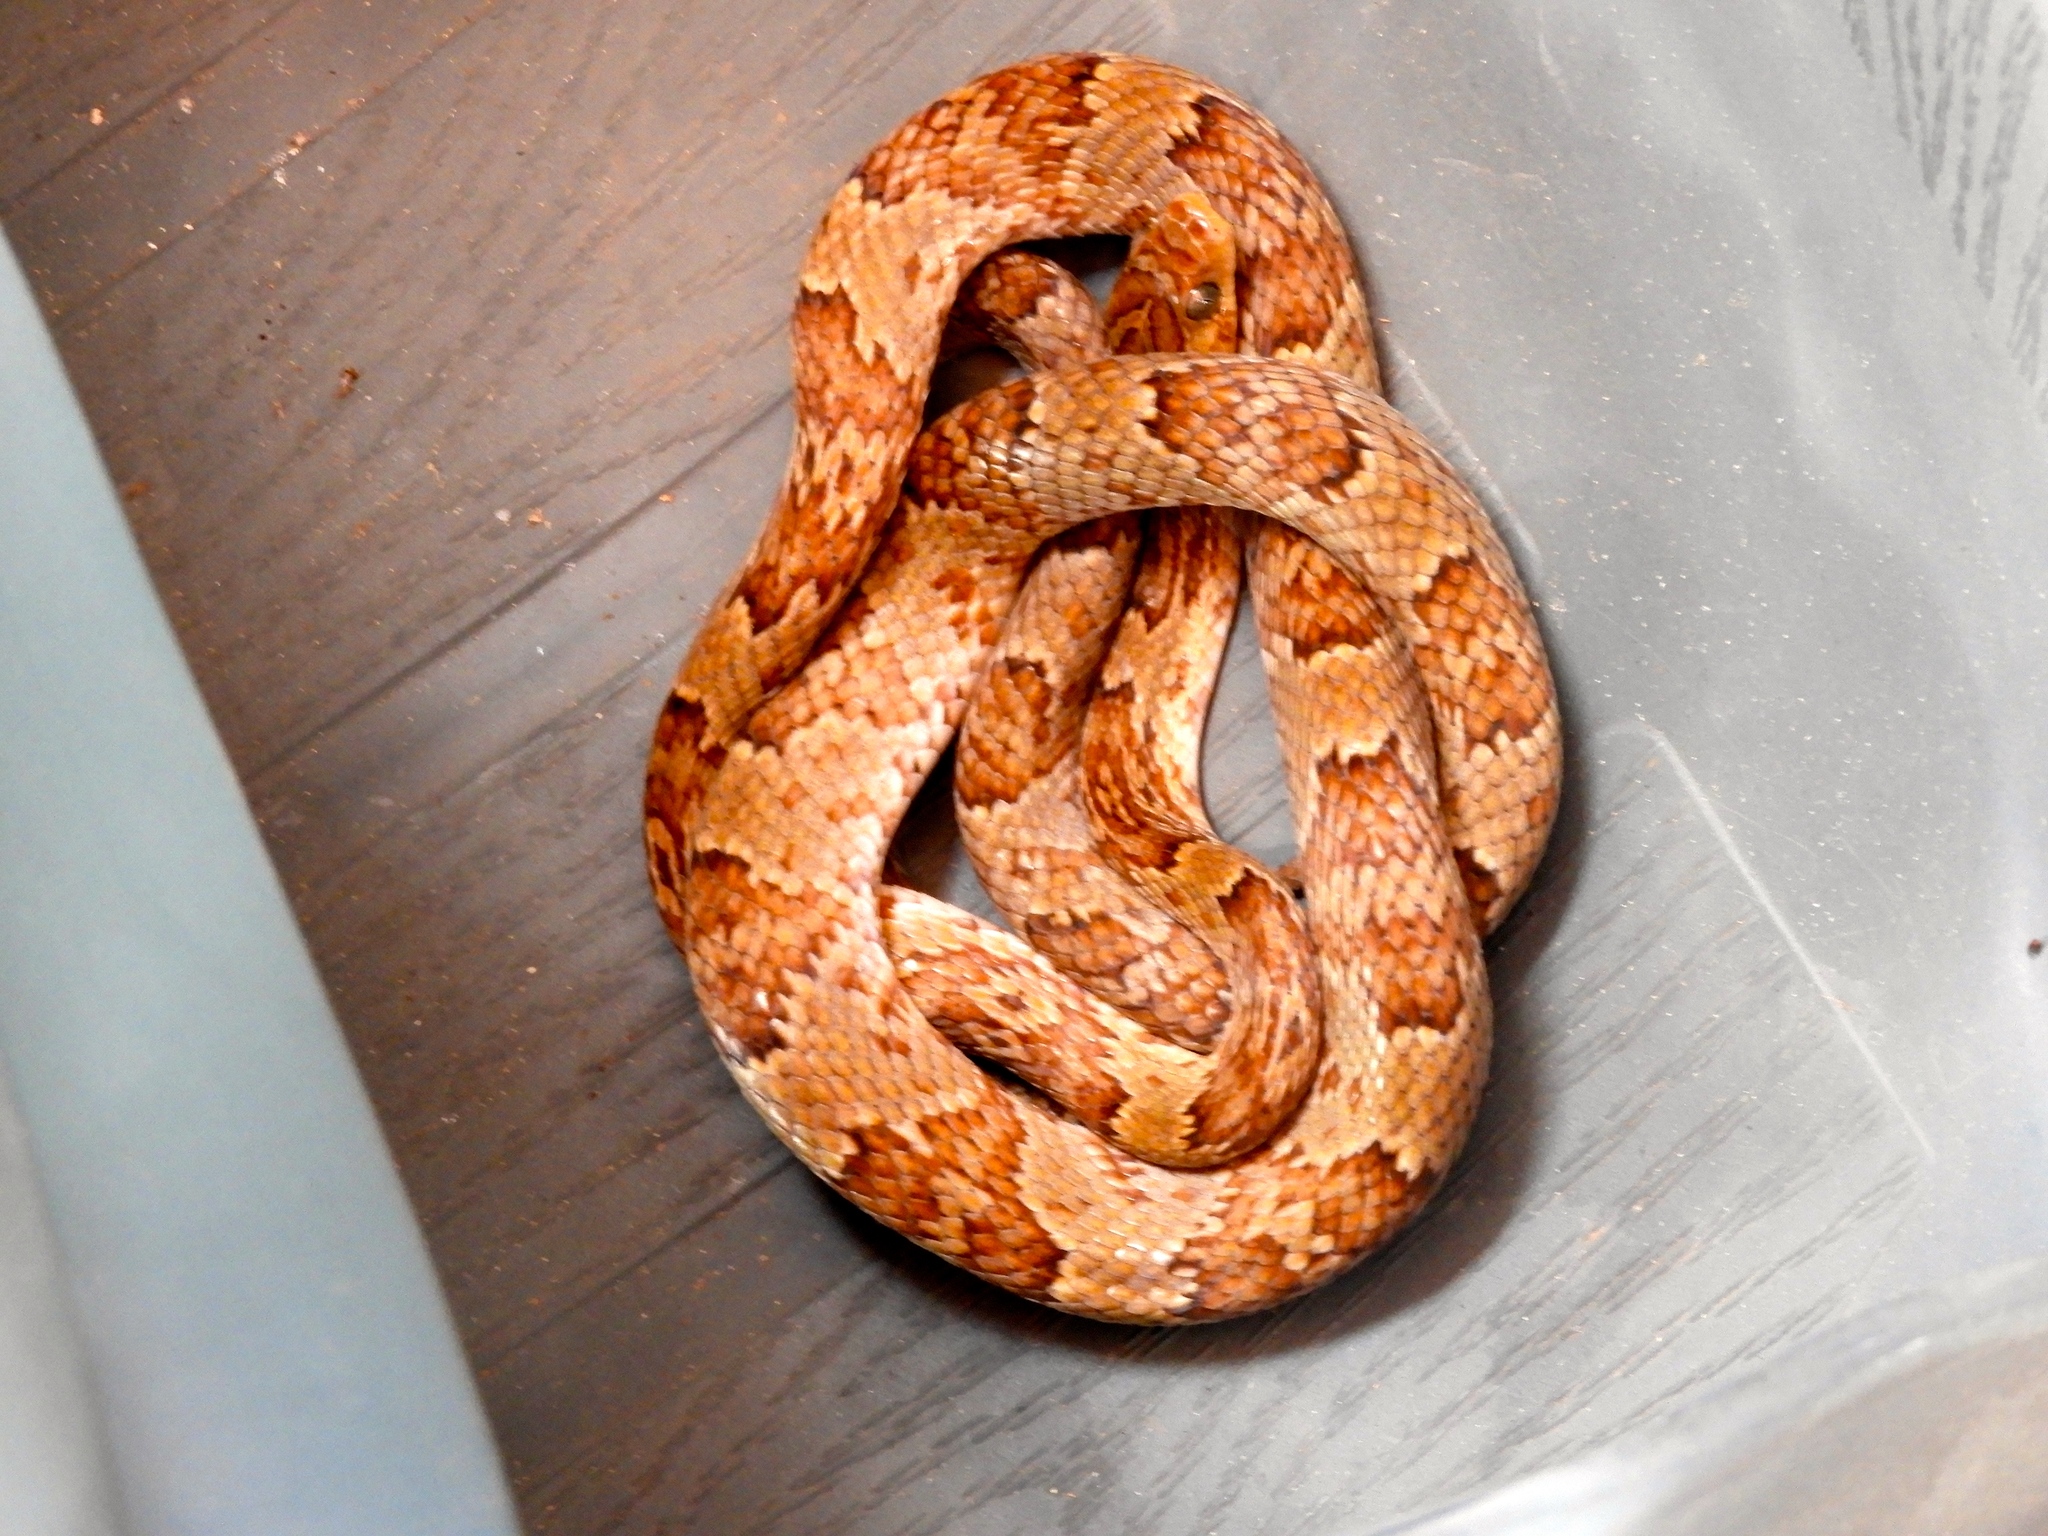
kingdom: Animalia
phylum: Chordata
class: Squamata
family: Colubridae
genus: Trimorphodon
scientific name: Trimorphodon paucimaculatus
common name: Sinaloan lyresnake
